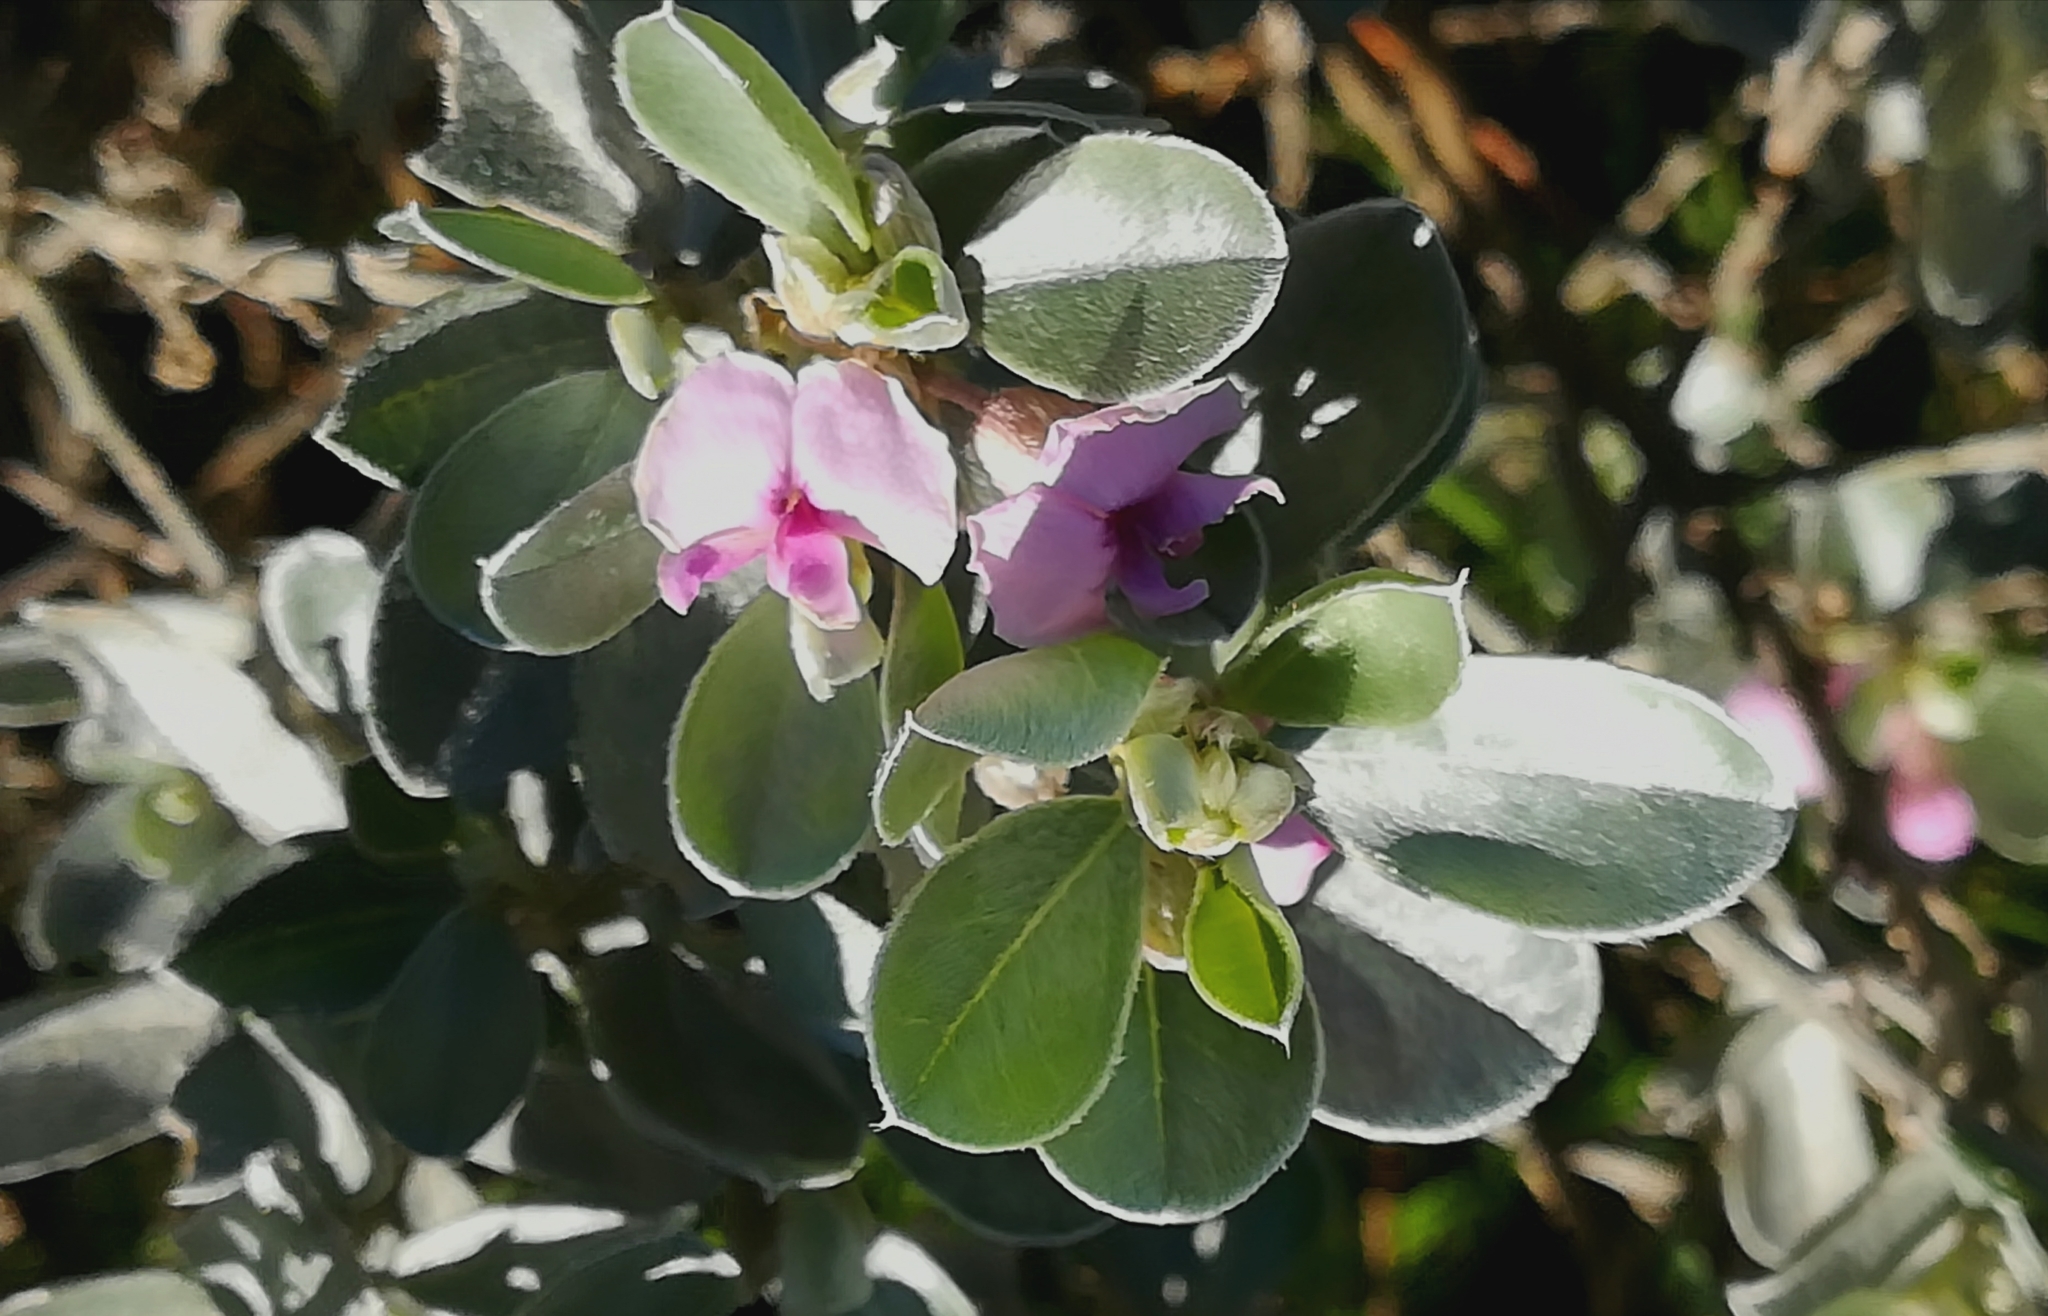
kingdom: Plantae
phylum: Tracheophyta
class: Magnoliopsida
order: Fabales
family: Fabaceae
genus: Podalyria
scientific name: Podalyria sericea
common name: Silver podalyria
